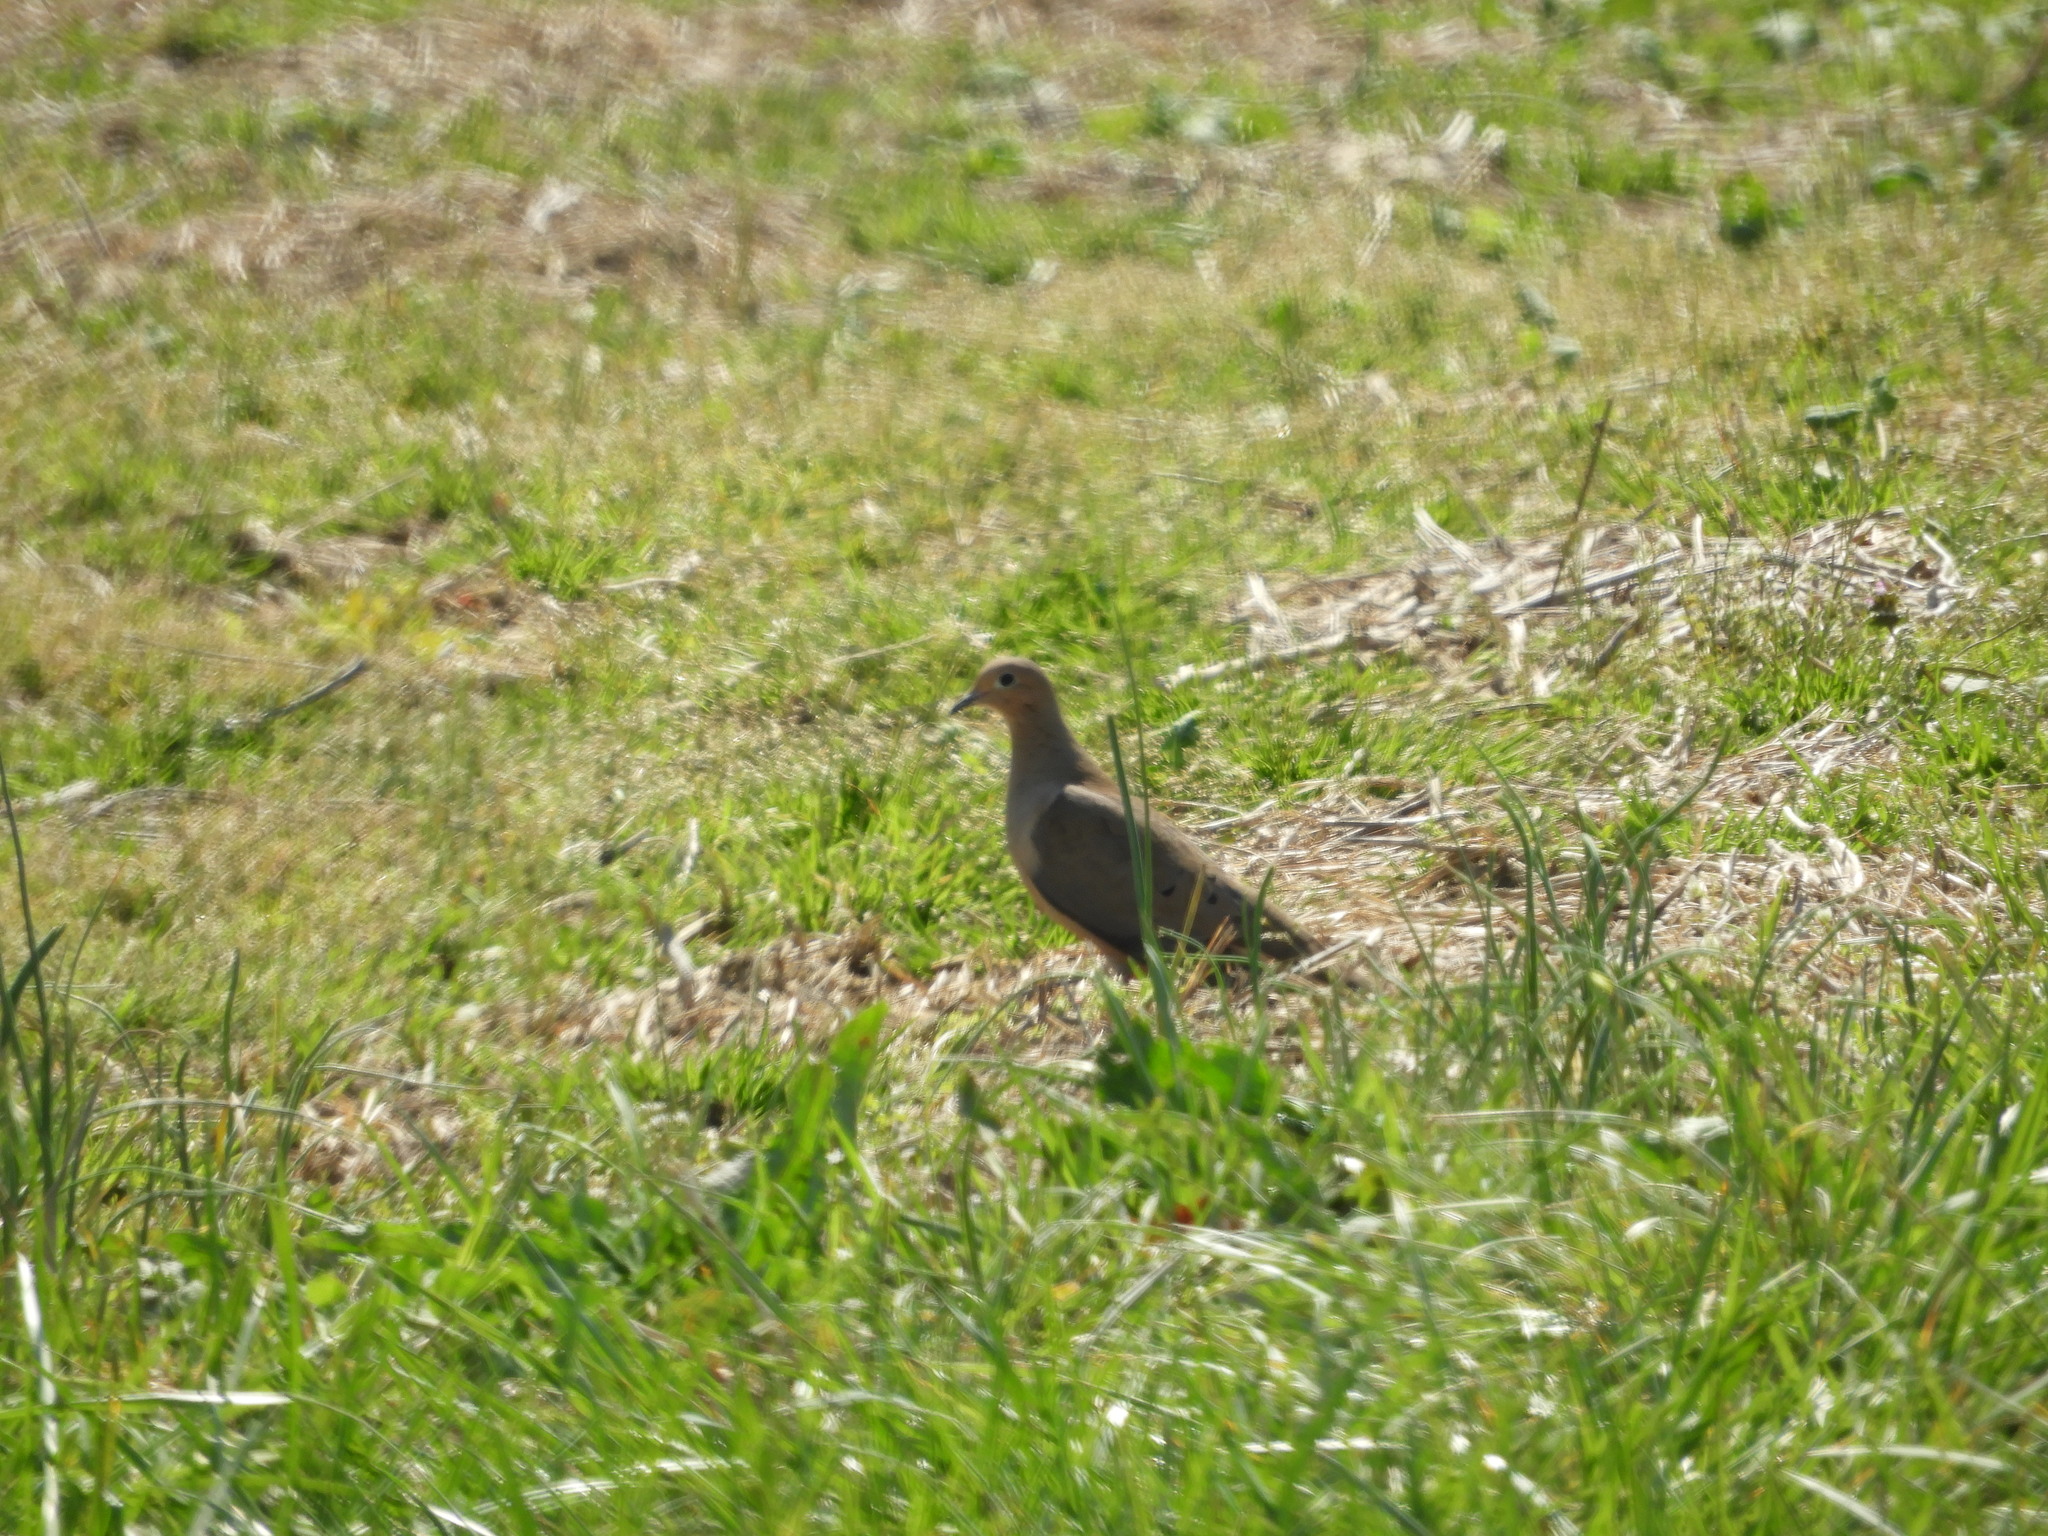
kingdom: Animalia
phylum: Chordata
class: Aves
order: Columbiformes
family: Columbidae
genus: Zenaida
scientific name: Zenaida macroura
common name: Mourning dove
